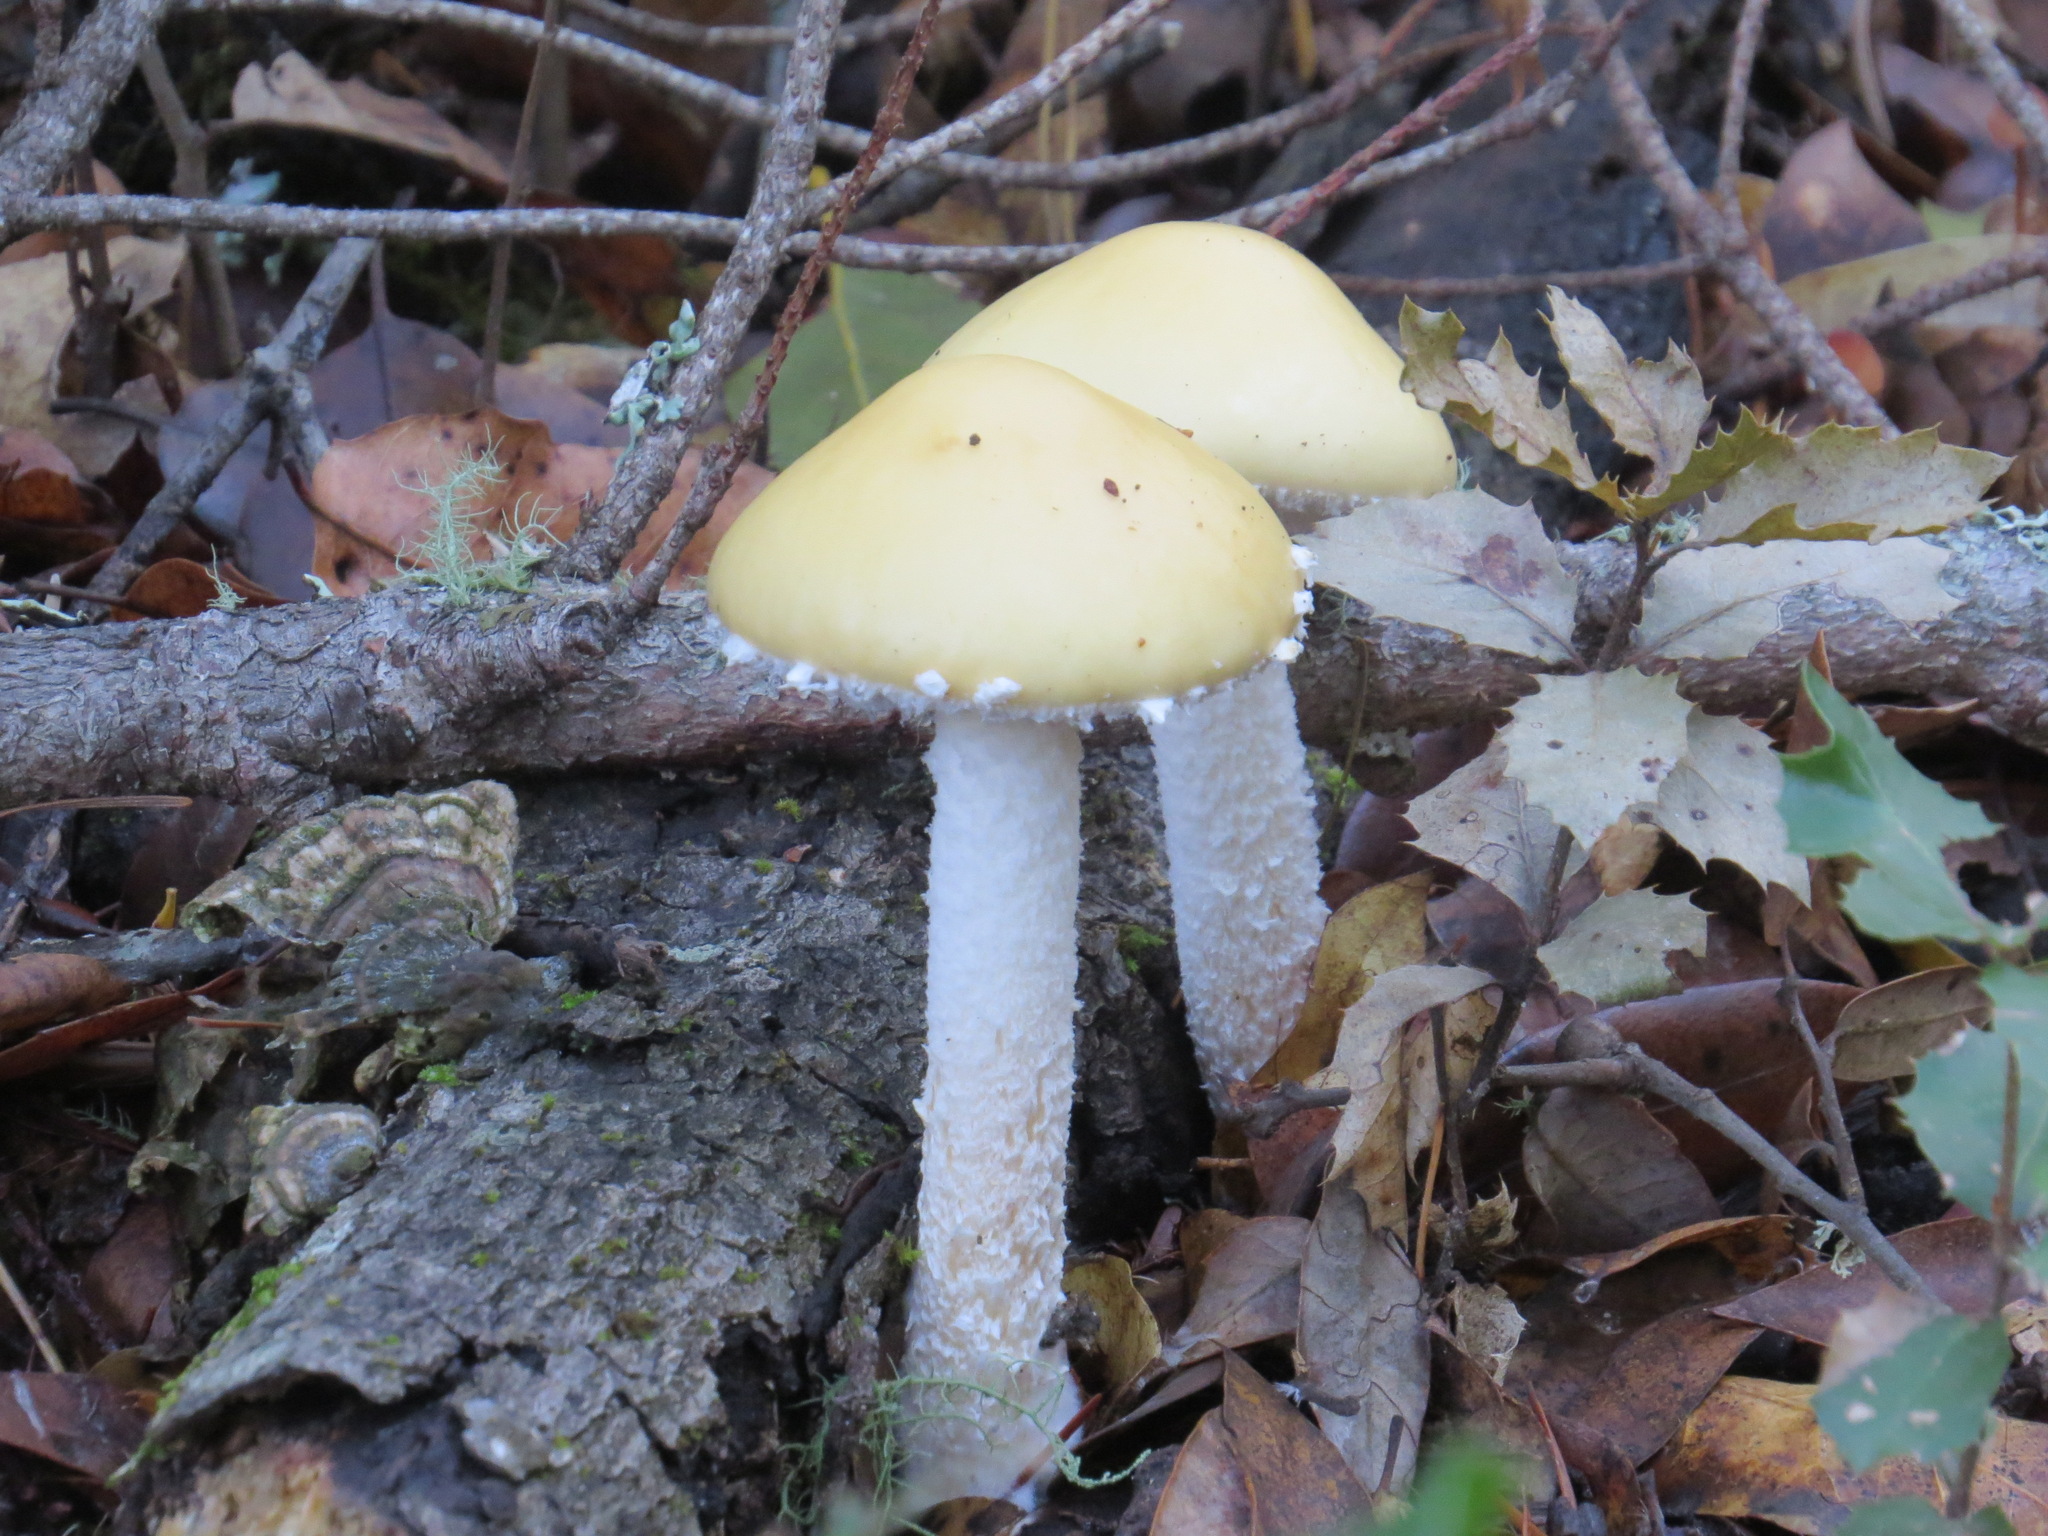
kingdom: Fungi
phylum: Basidiomycota
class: Agaricomycetes
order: Agaricales
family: Strophariaceae
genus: Stropharia
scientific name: Stropharia ambigua
